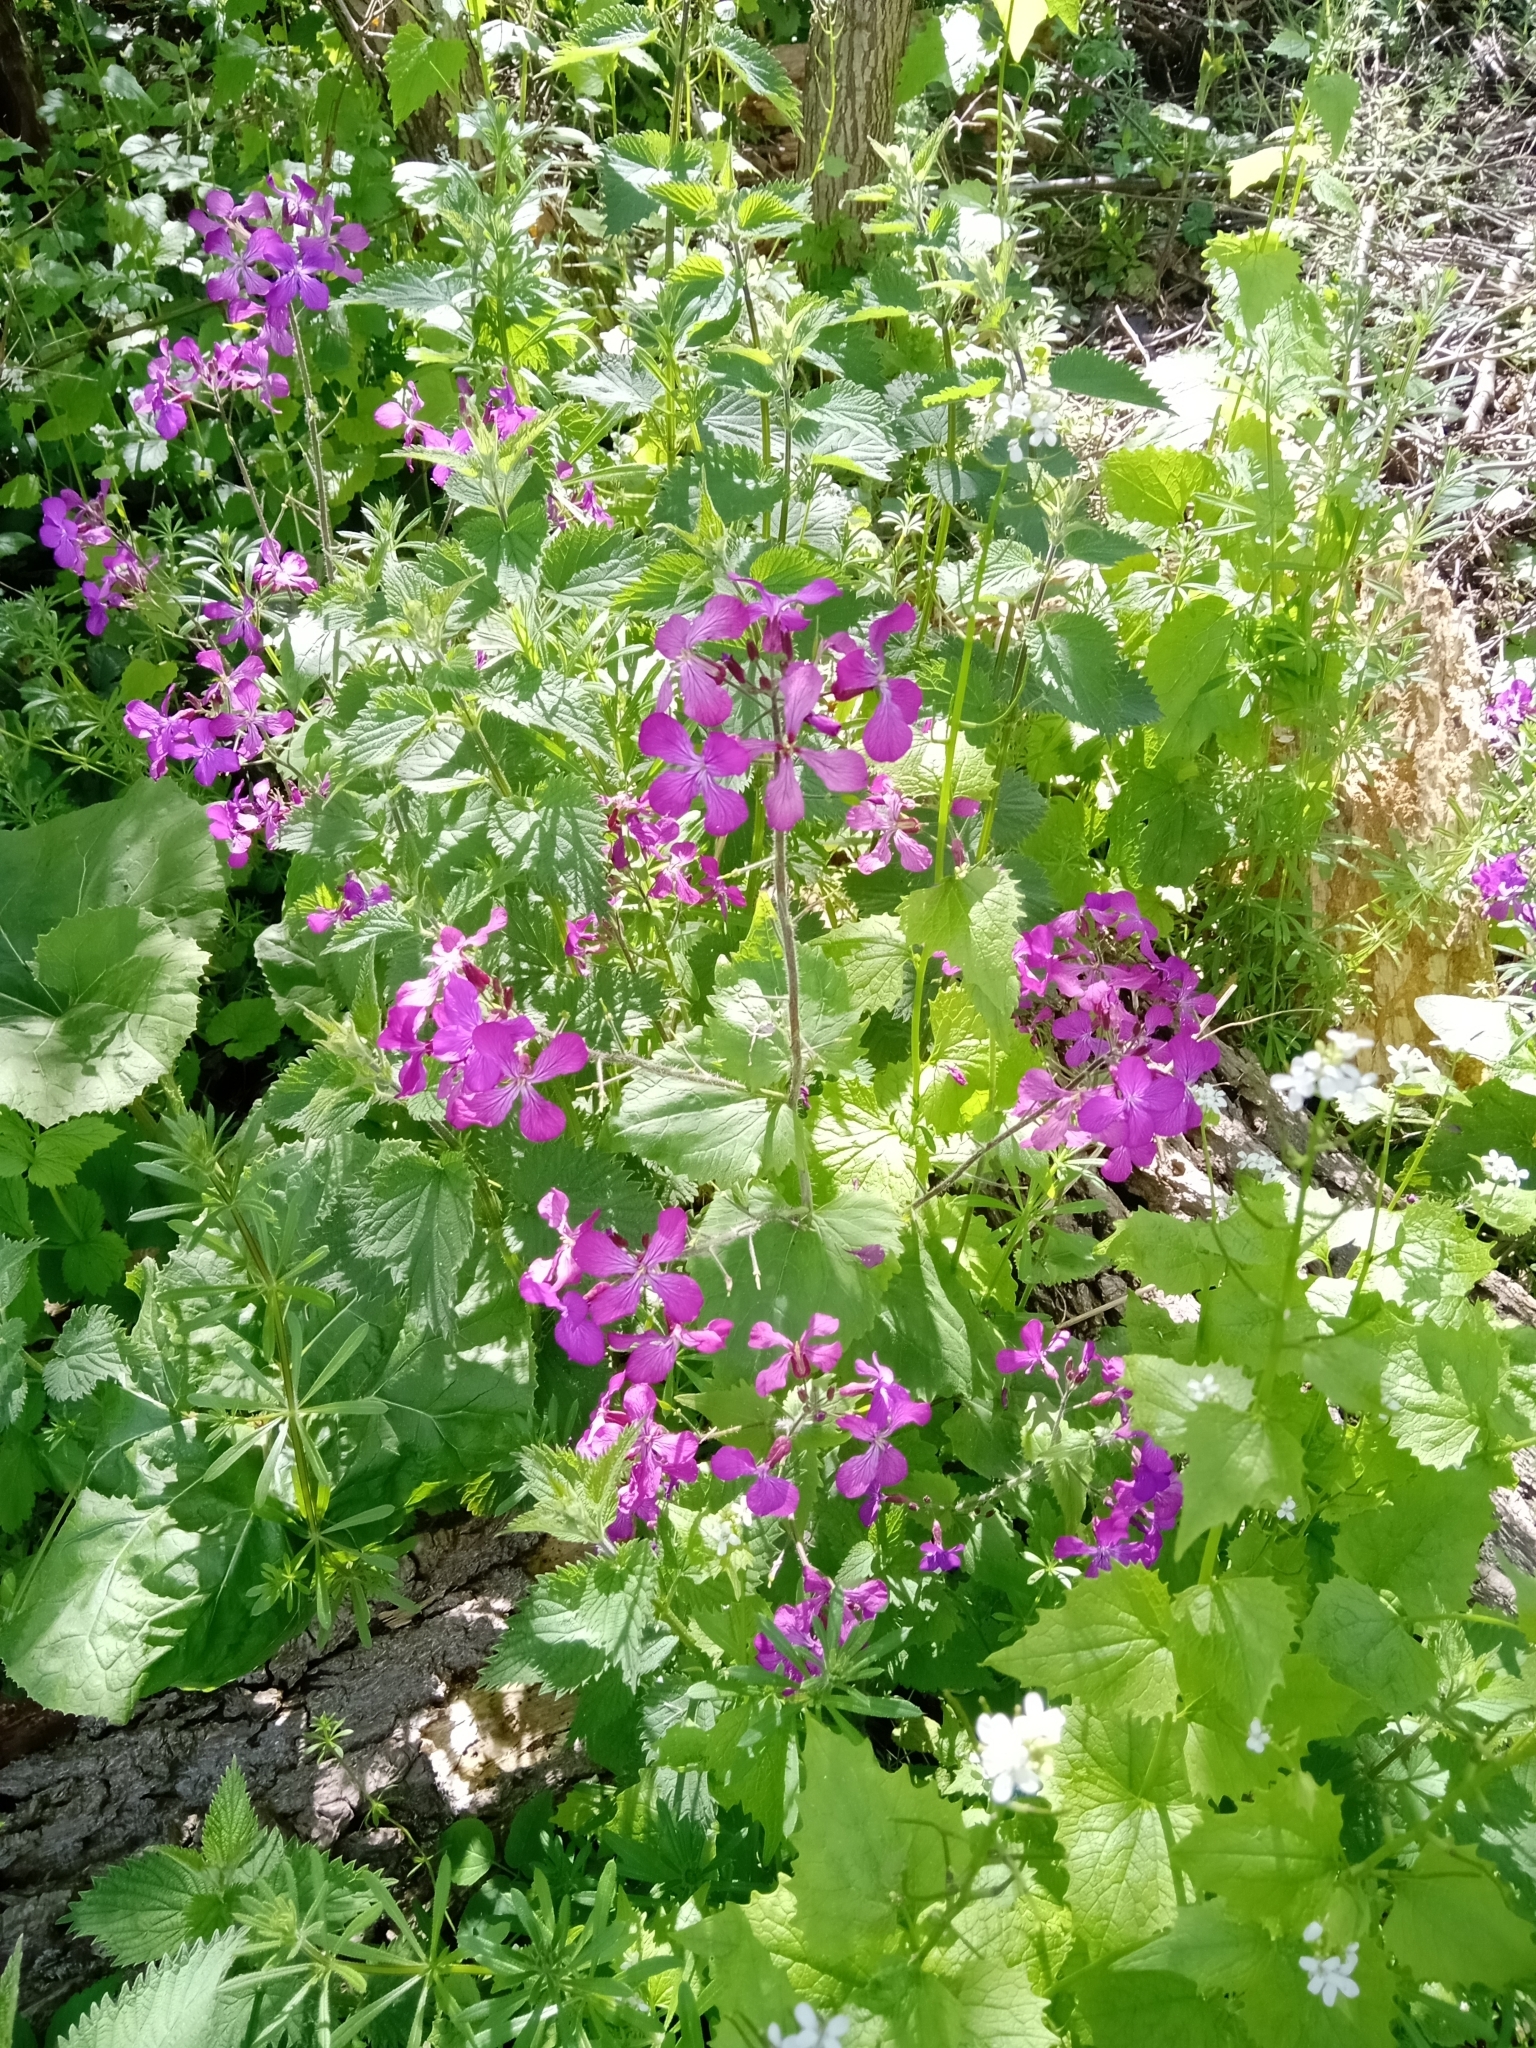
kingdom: Plantae
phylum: Tracheophyta
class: Magnoliopsida
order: Brassicales
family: Brassicaceae
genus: Lunaria
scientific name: Lunaria annua
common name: Honesty
